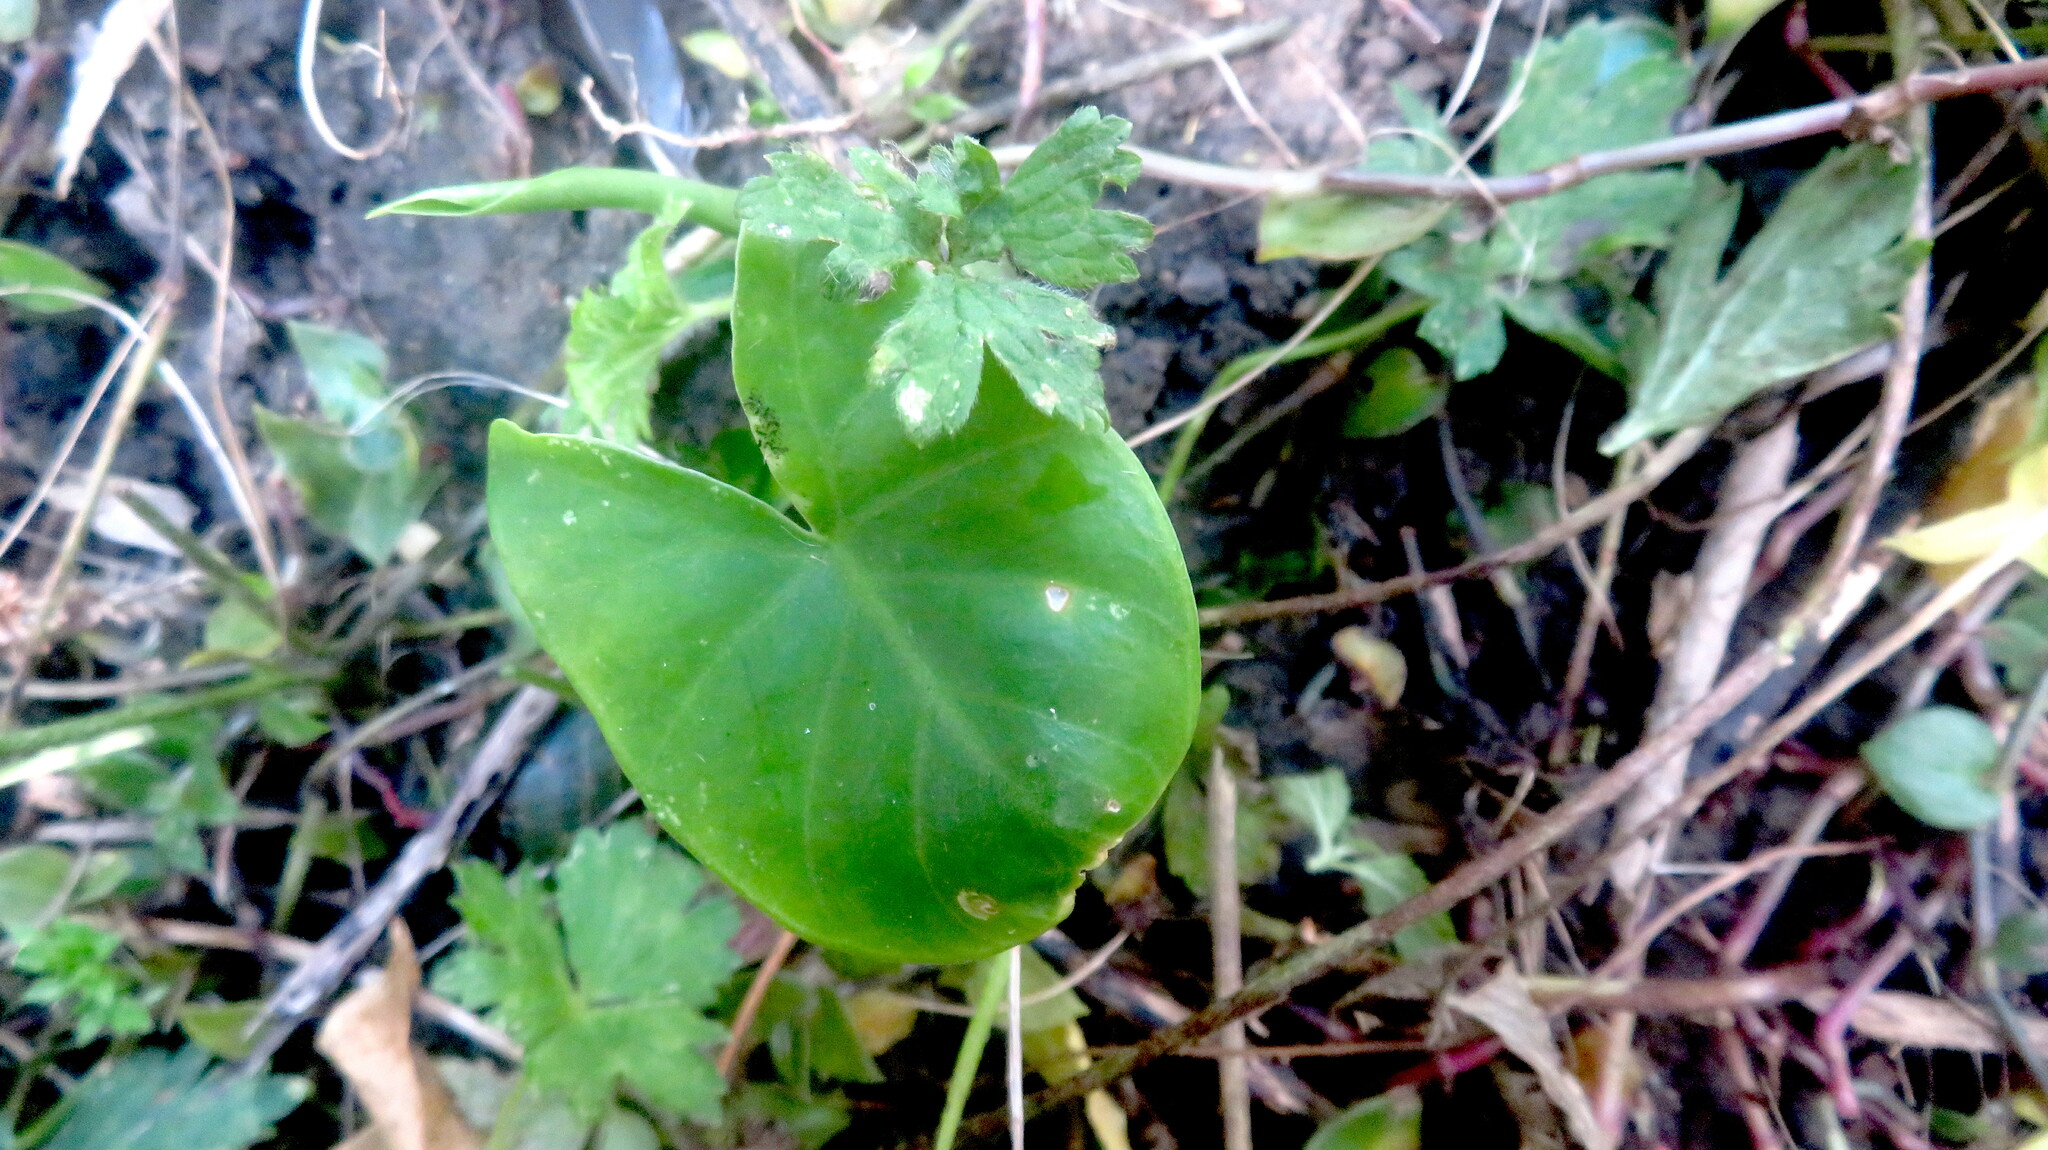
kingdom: Plantae
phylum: Tracheophyta
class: Liliopsida
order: Alismatales
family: Araceae
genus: Alocasia
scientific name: Alocasia brisbanensis
